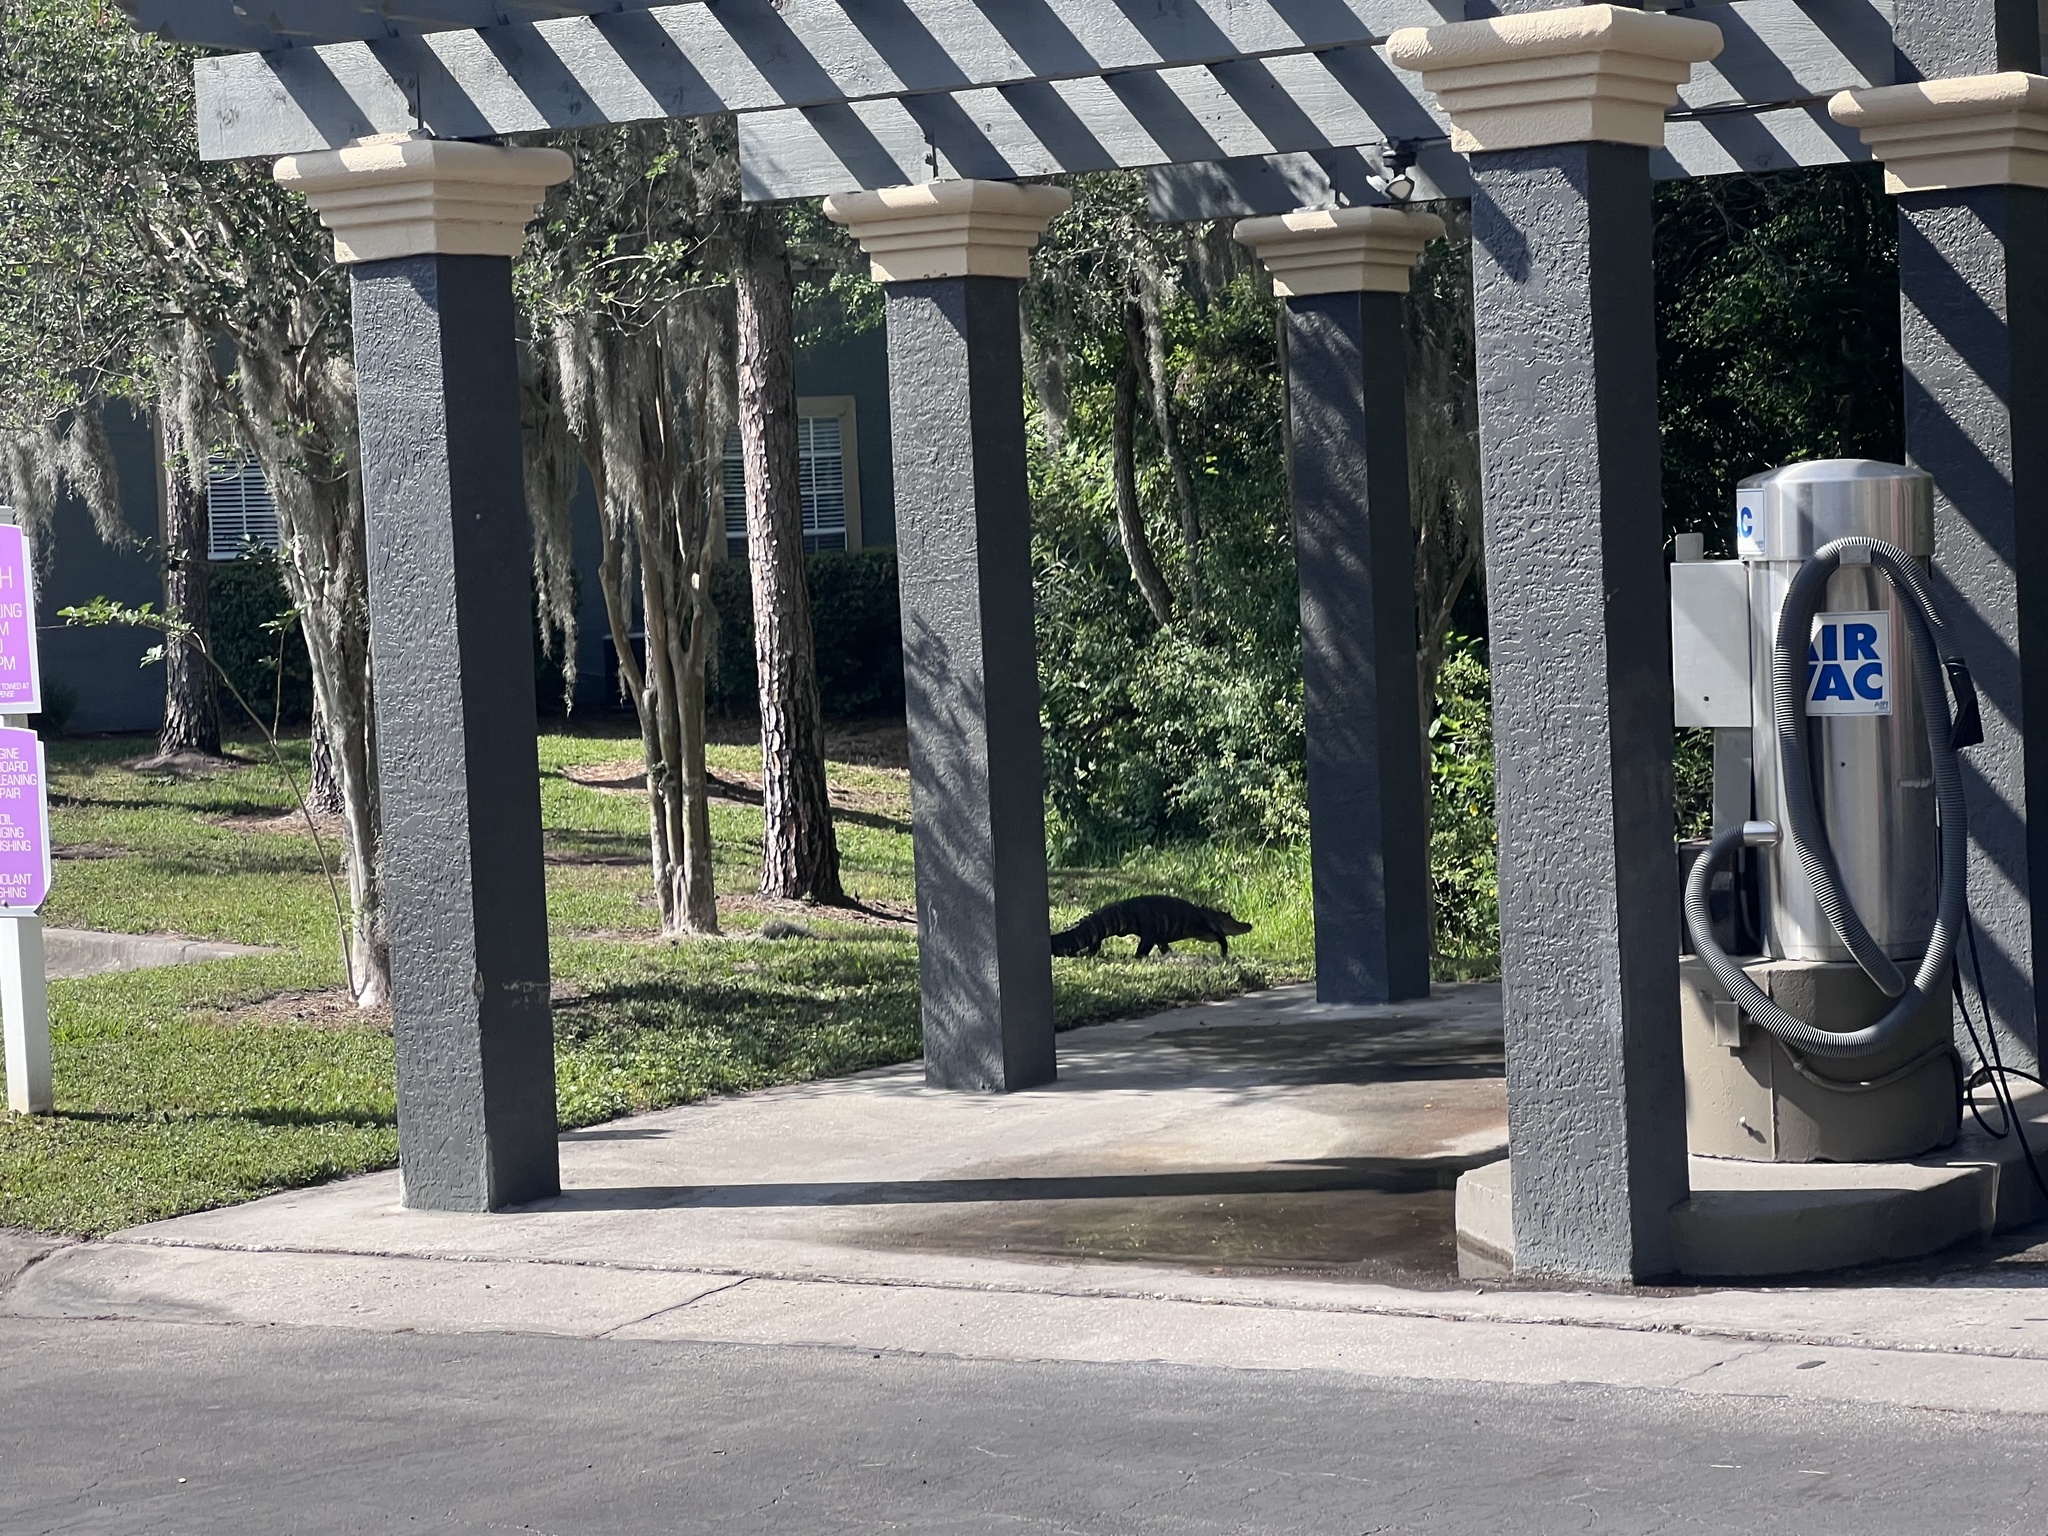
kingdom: Animalia
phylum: Chordata
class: Crocodylia
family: Alligatoridae
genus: Alligator
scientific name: Alligator mississippiensis
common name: American alligator
